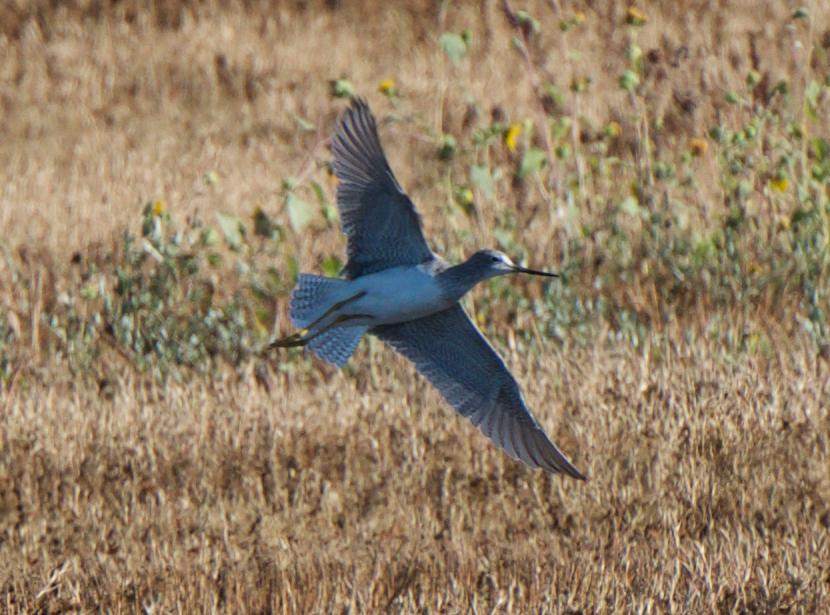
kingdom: Animalia
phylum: Chordata
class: Aves
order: Charadriiformes
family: Scolopacidae
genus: Tringa
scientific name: Tringa melanoleuca
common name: Greater yellowlegs
